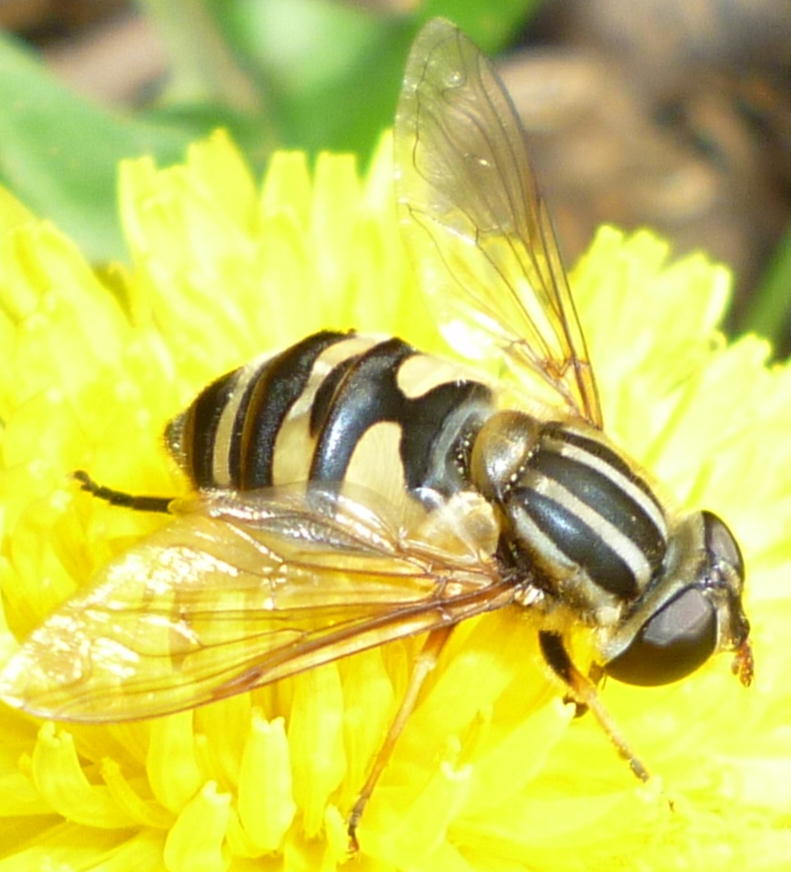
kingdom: Animalia
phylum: Arthropoda
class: Insecta
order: Diptera
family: Syrphidae
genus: Helophilus
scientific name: Helophilus fasciatus
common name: Narrow-headed marsh fly
